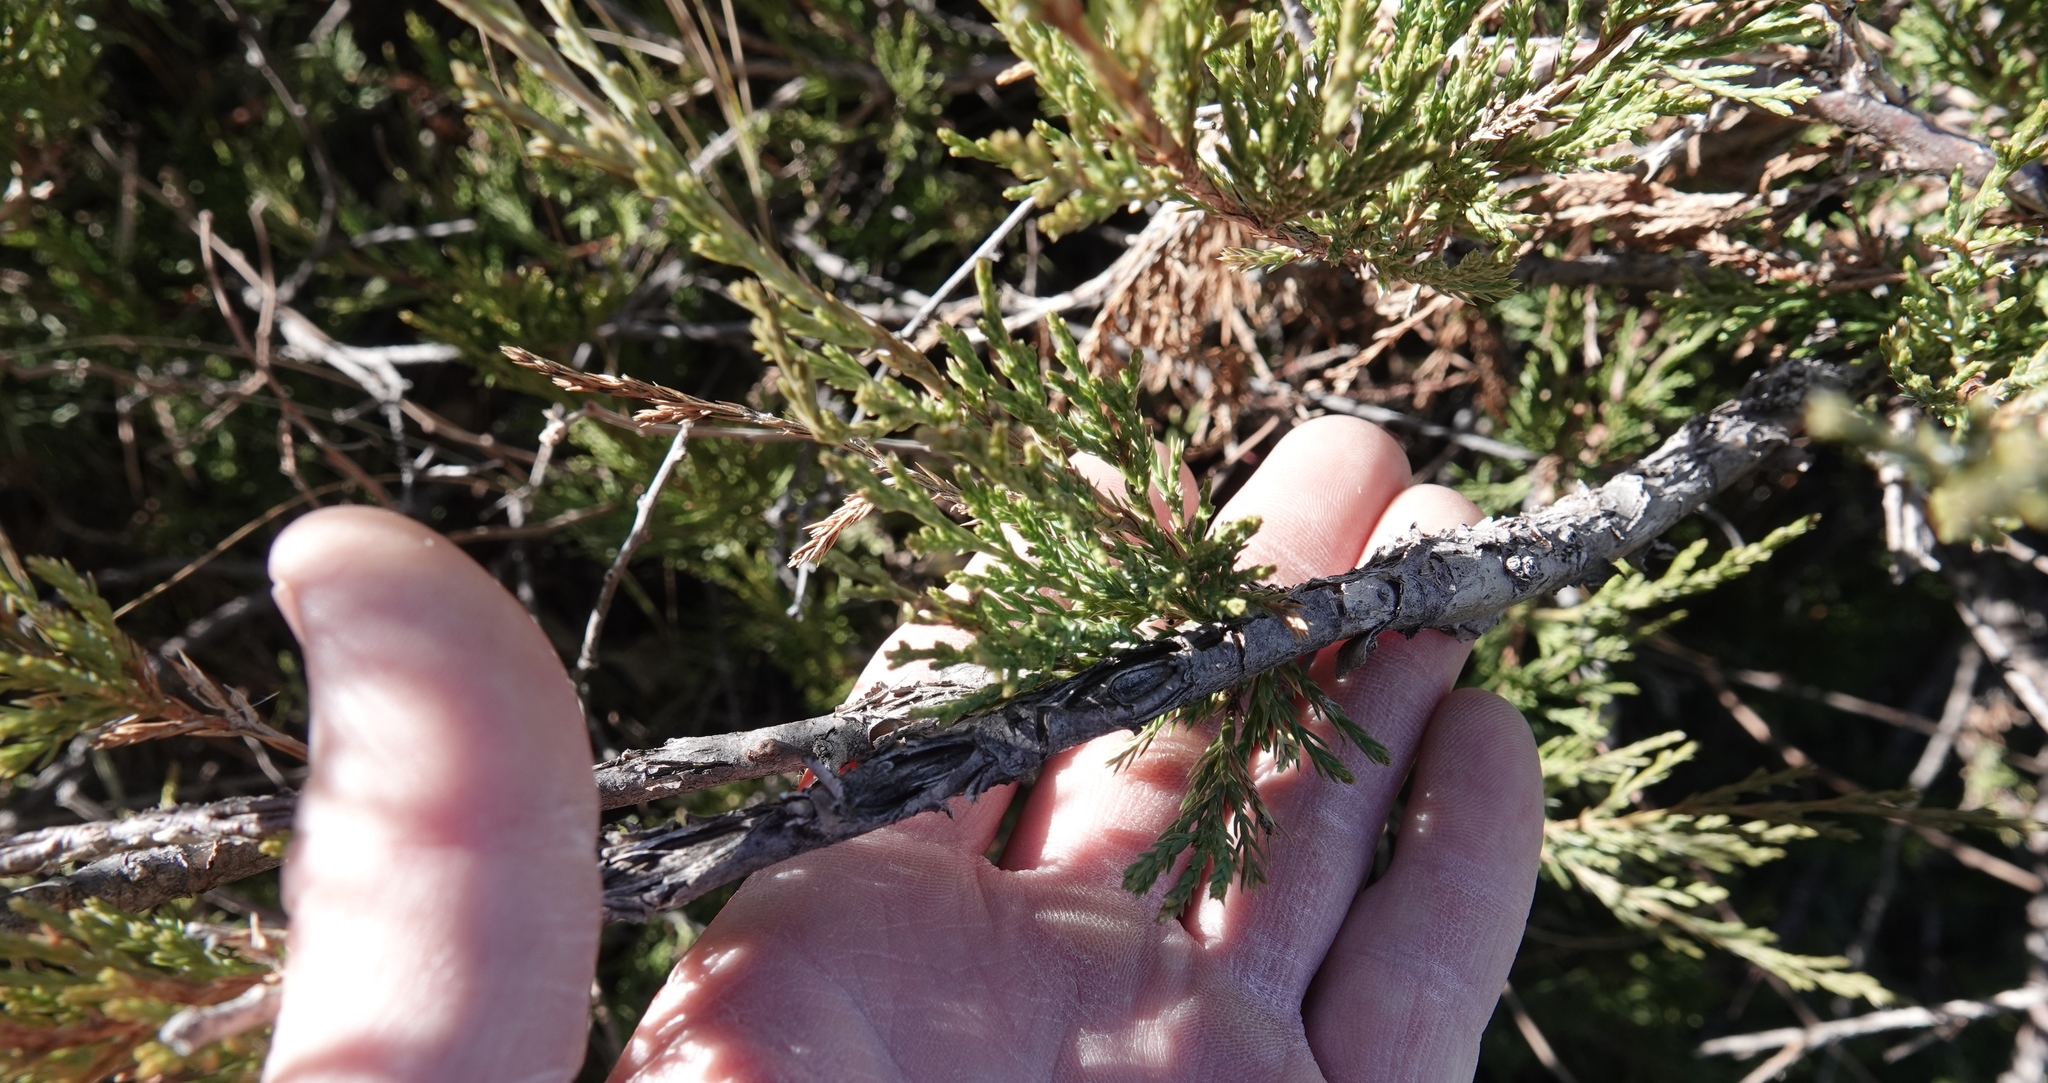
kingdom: Plantae
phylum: Tracheophyta
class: Pinopsida
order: Pinales
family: Cupressaceae
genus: Juniperus
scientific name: Juniperus scopulorum
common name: Rocky mountain juniper
